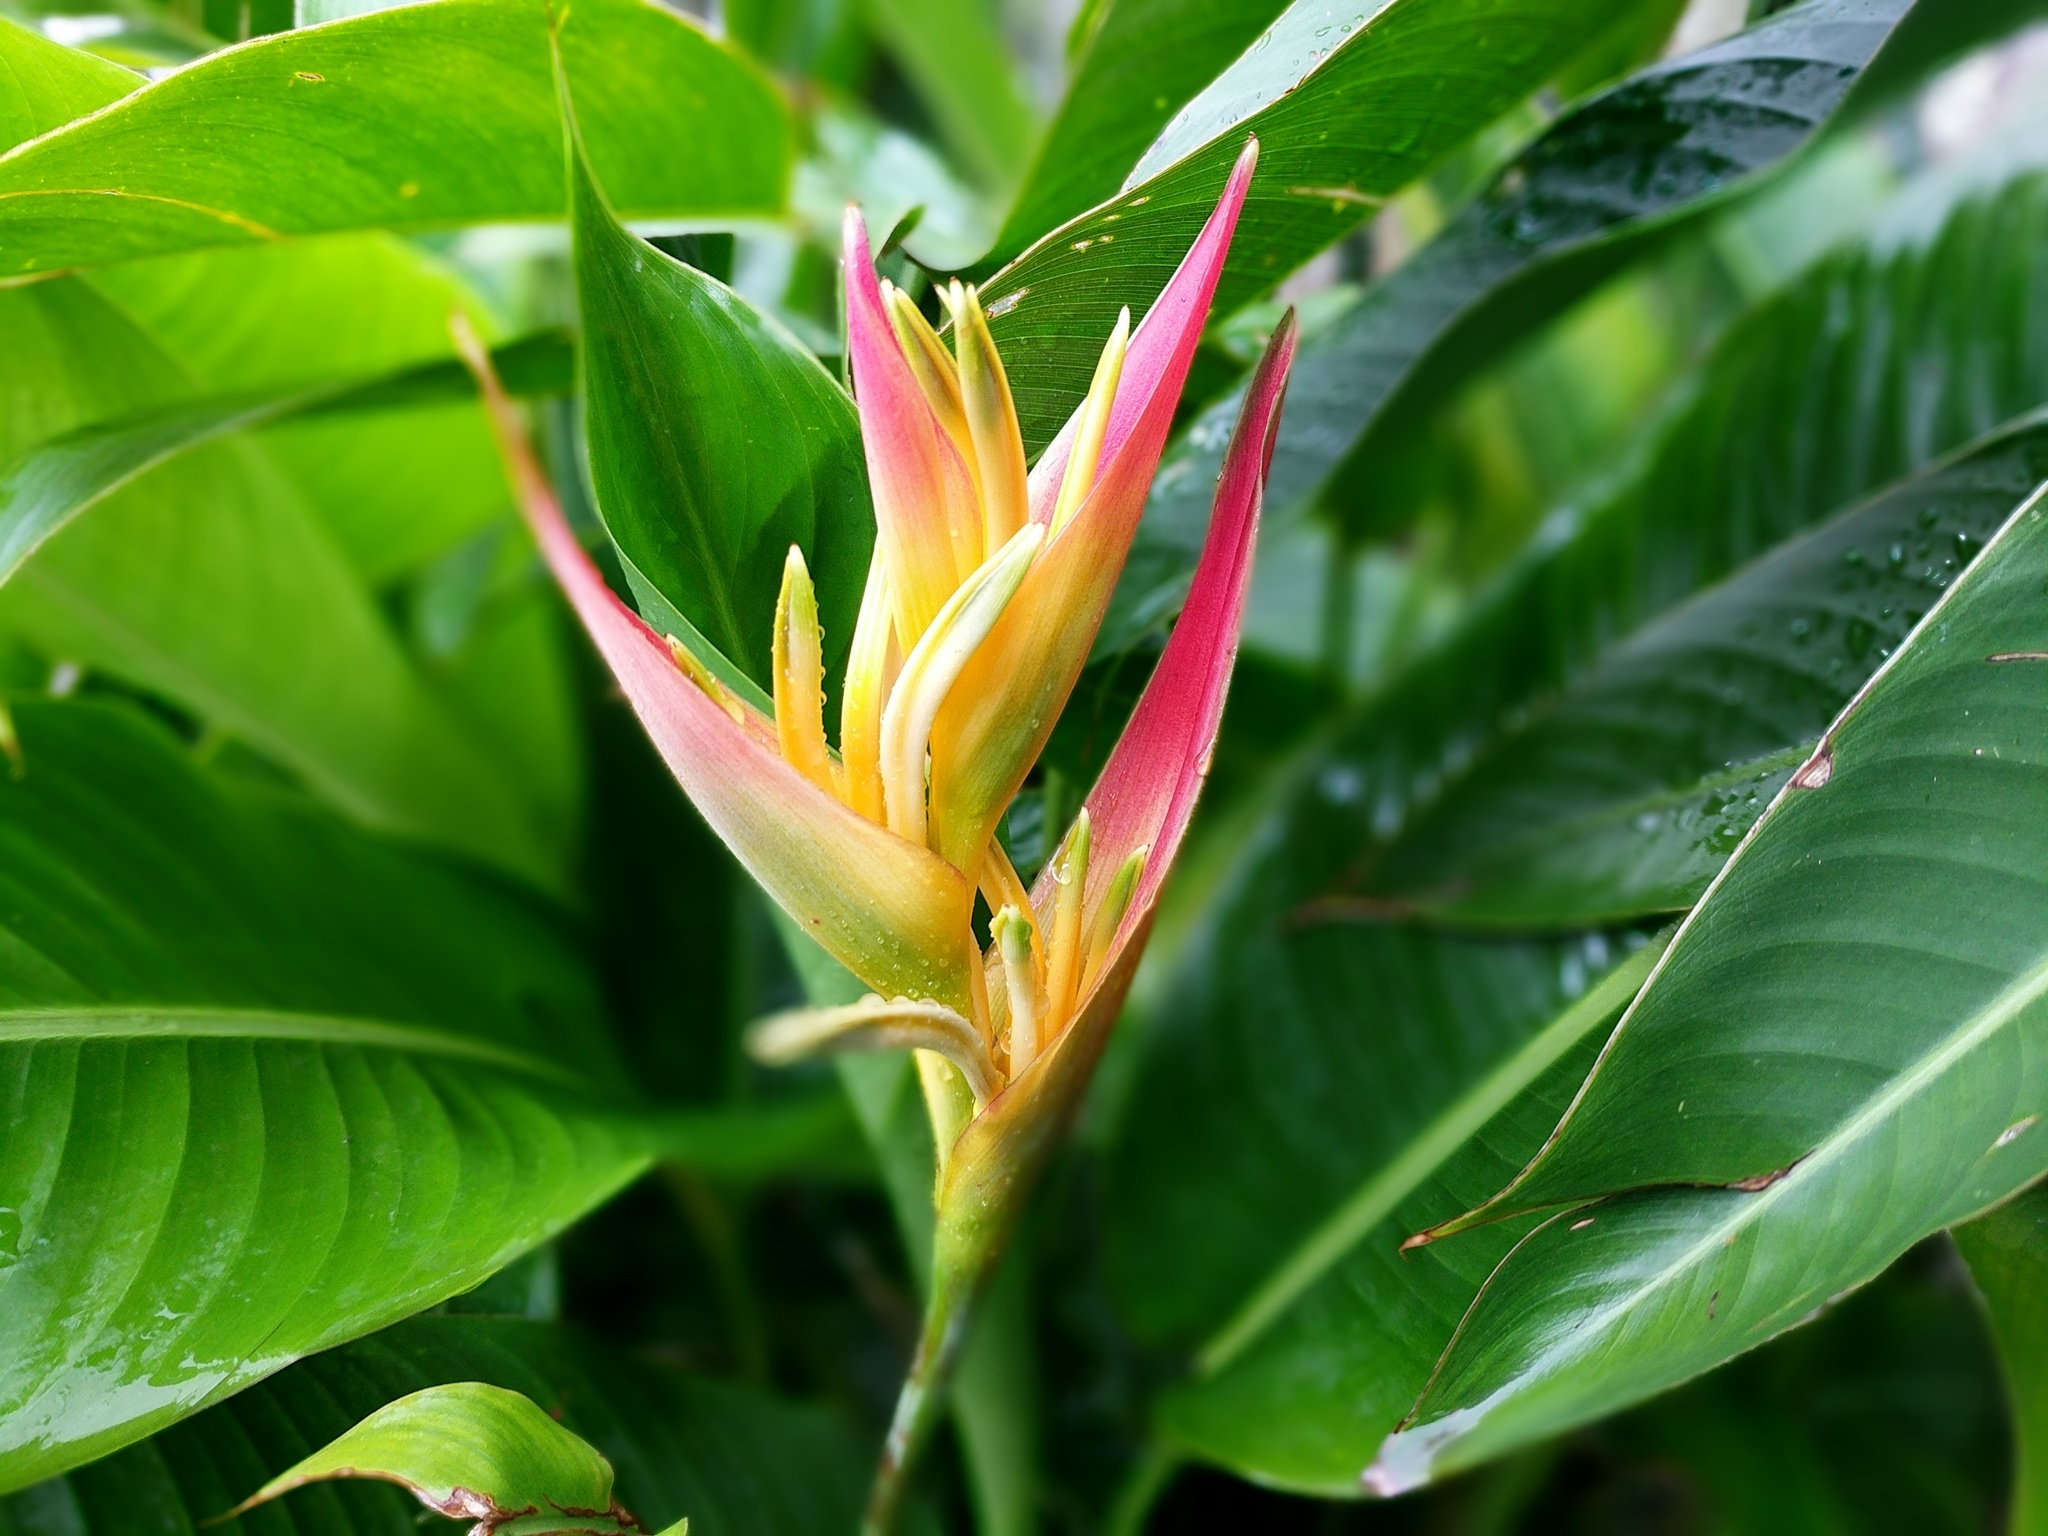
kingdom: Plantae
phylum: Tracheophyta
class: Liliopsida
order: Zingiberales
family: Heliconiaceae
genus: Heliconia
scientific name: Heliconia psittacorum
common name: Parrot's-flower
